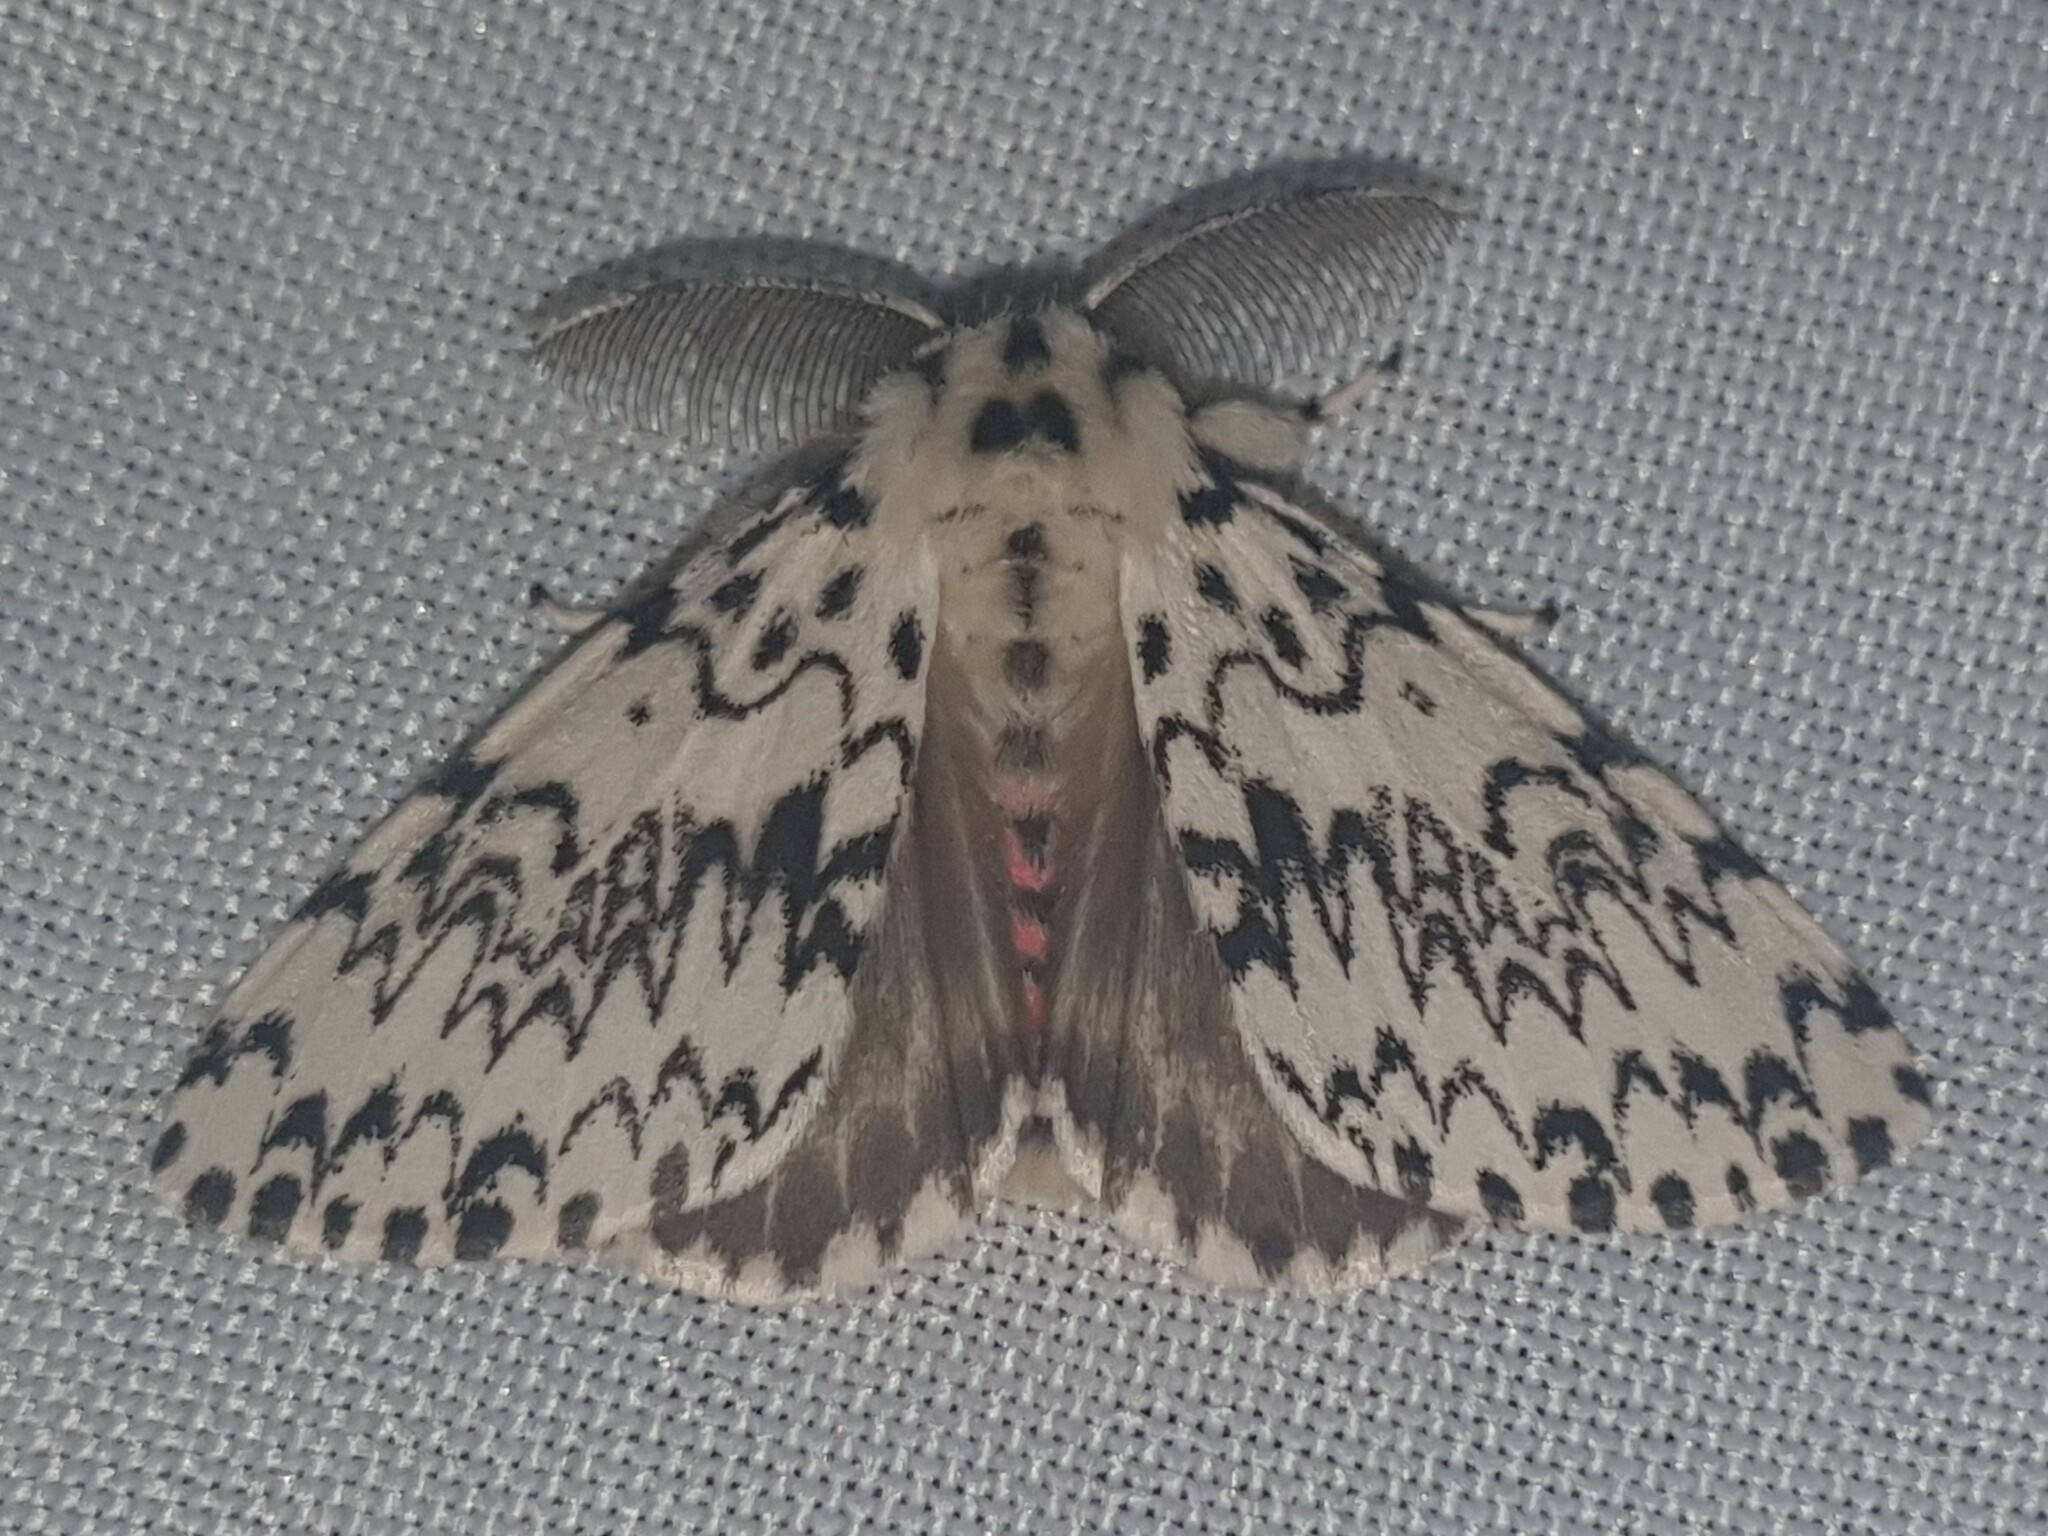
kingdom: Animalia
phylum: Arthropoda
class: Insecta
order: Lepidoptera
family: Erebidae
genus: Lymantria
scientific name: Lymantria monacha
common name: Black arches
